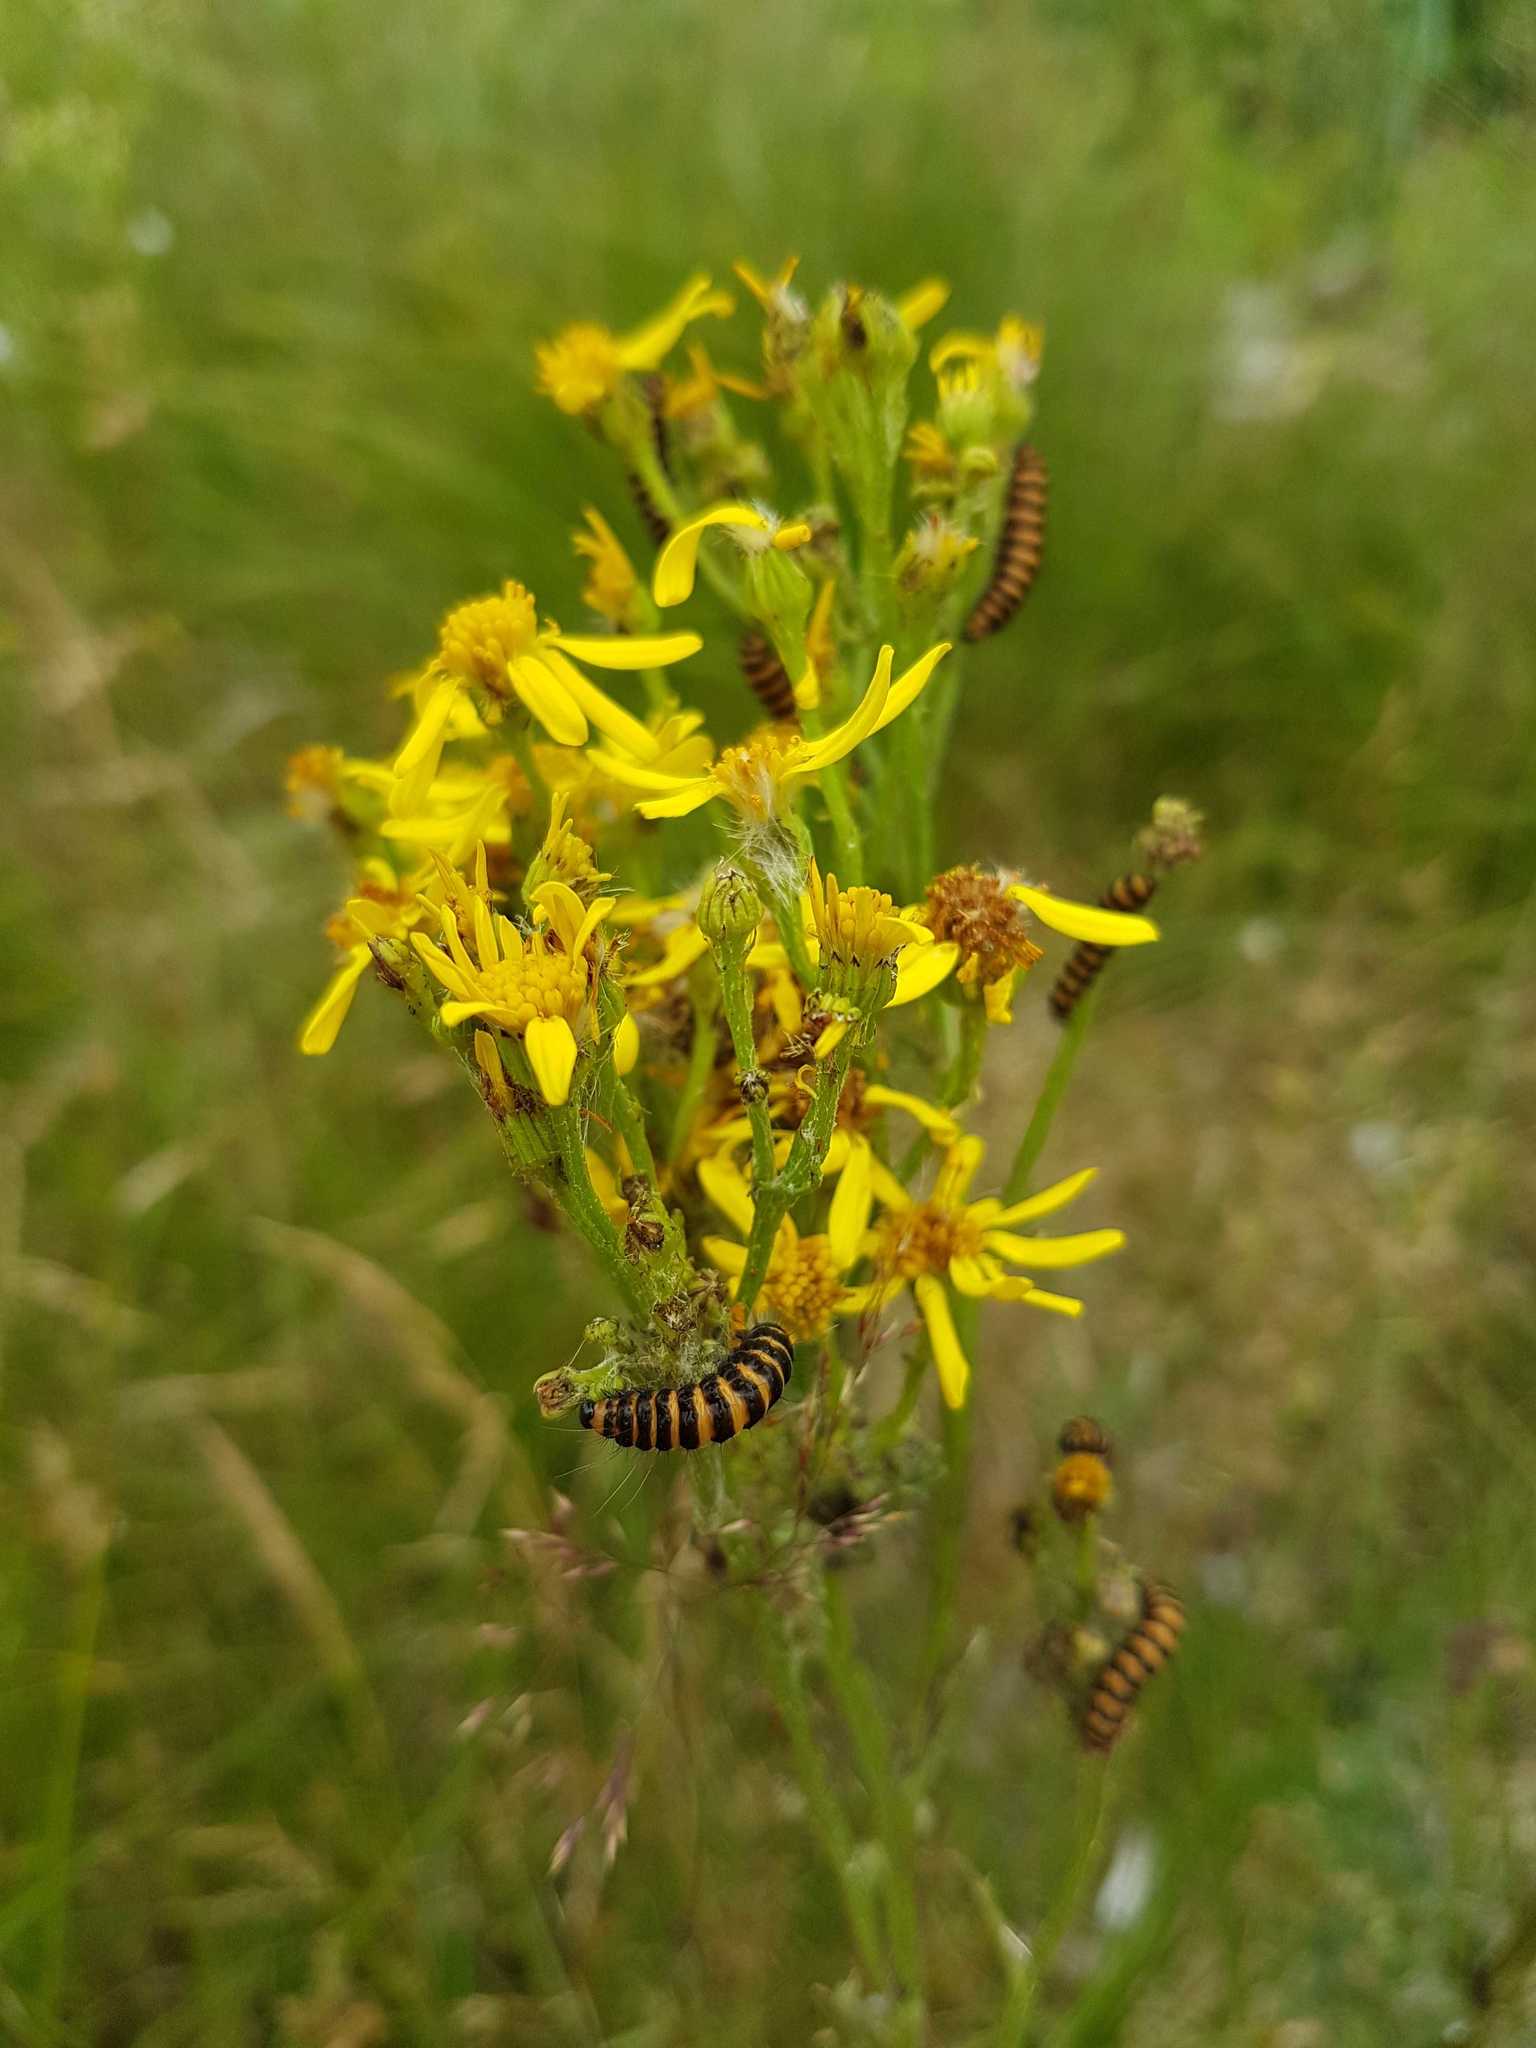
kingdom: Animalia
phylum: Arthropoda
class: Insecta
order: Lepidoptera
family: Erebidae
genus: Tyria
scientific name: Tyria jacobaeae
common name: Cinnabar
